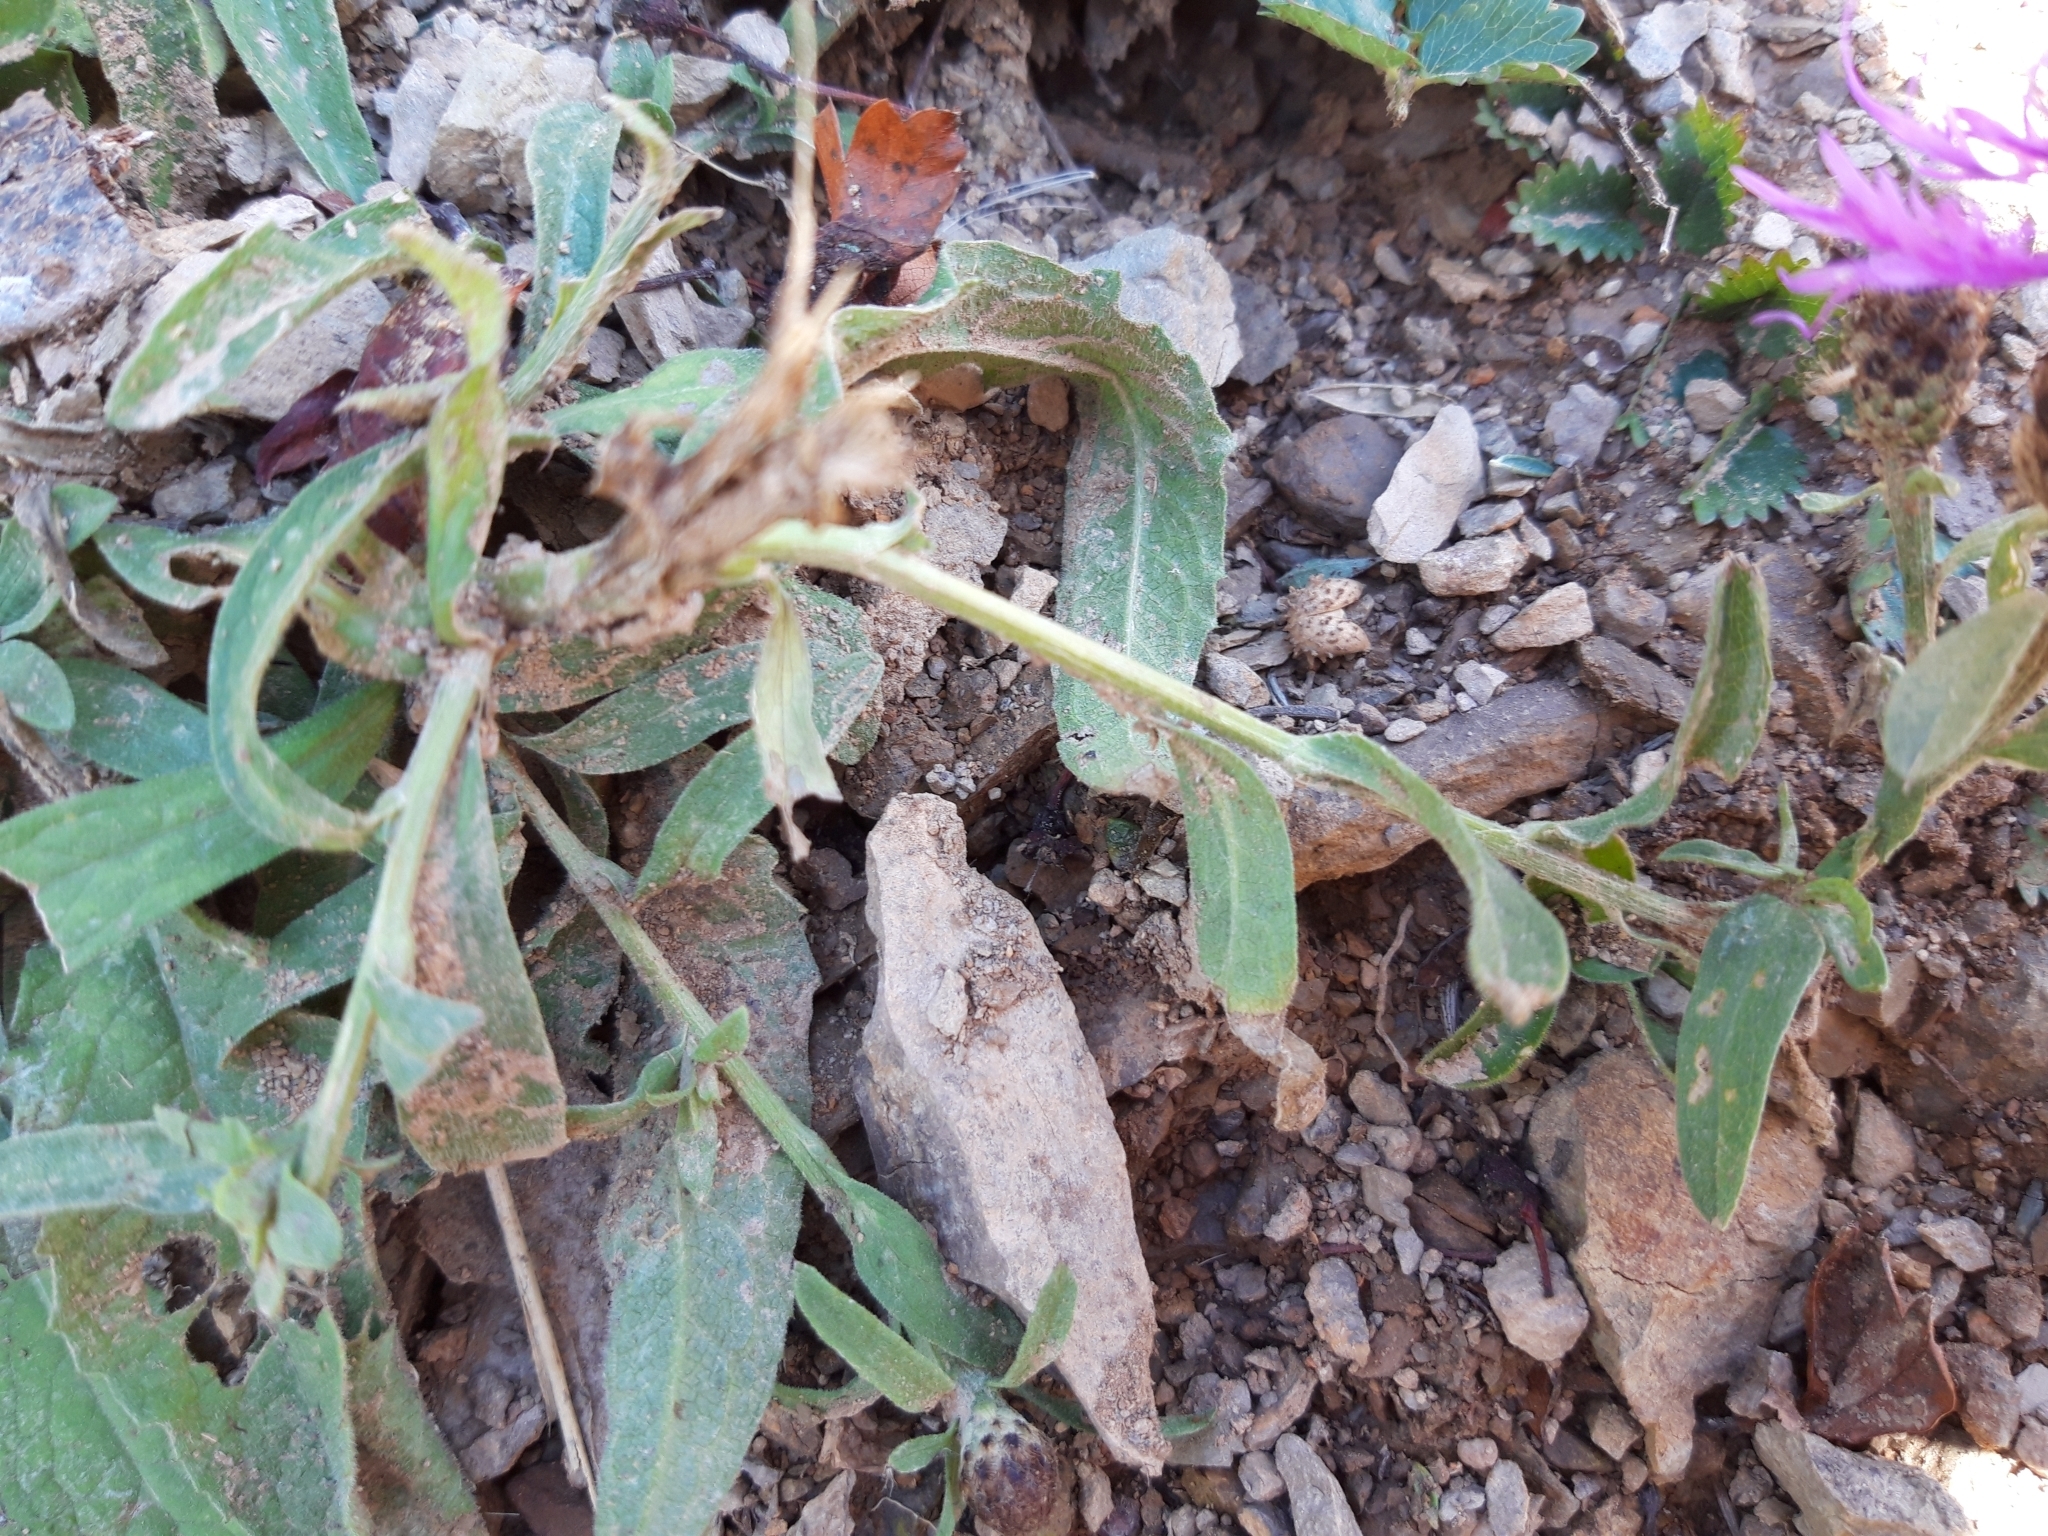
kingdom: Plantae
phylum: Tracheophyta
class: Magnoliopsida
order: Asterales
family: Asteraceae
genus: Centaurea
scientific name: Centaurea nigra
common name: Lesser knapweed
